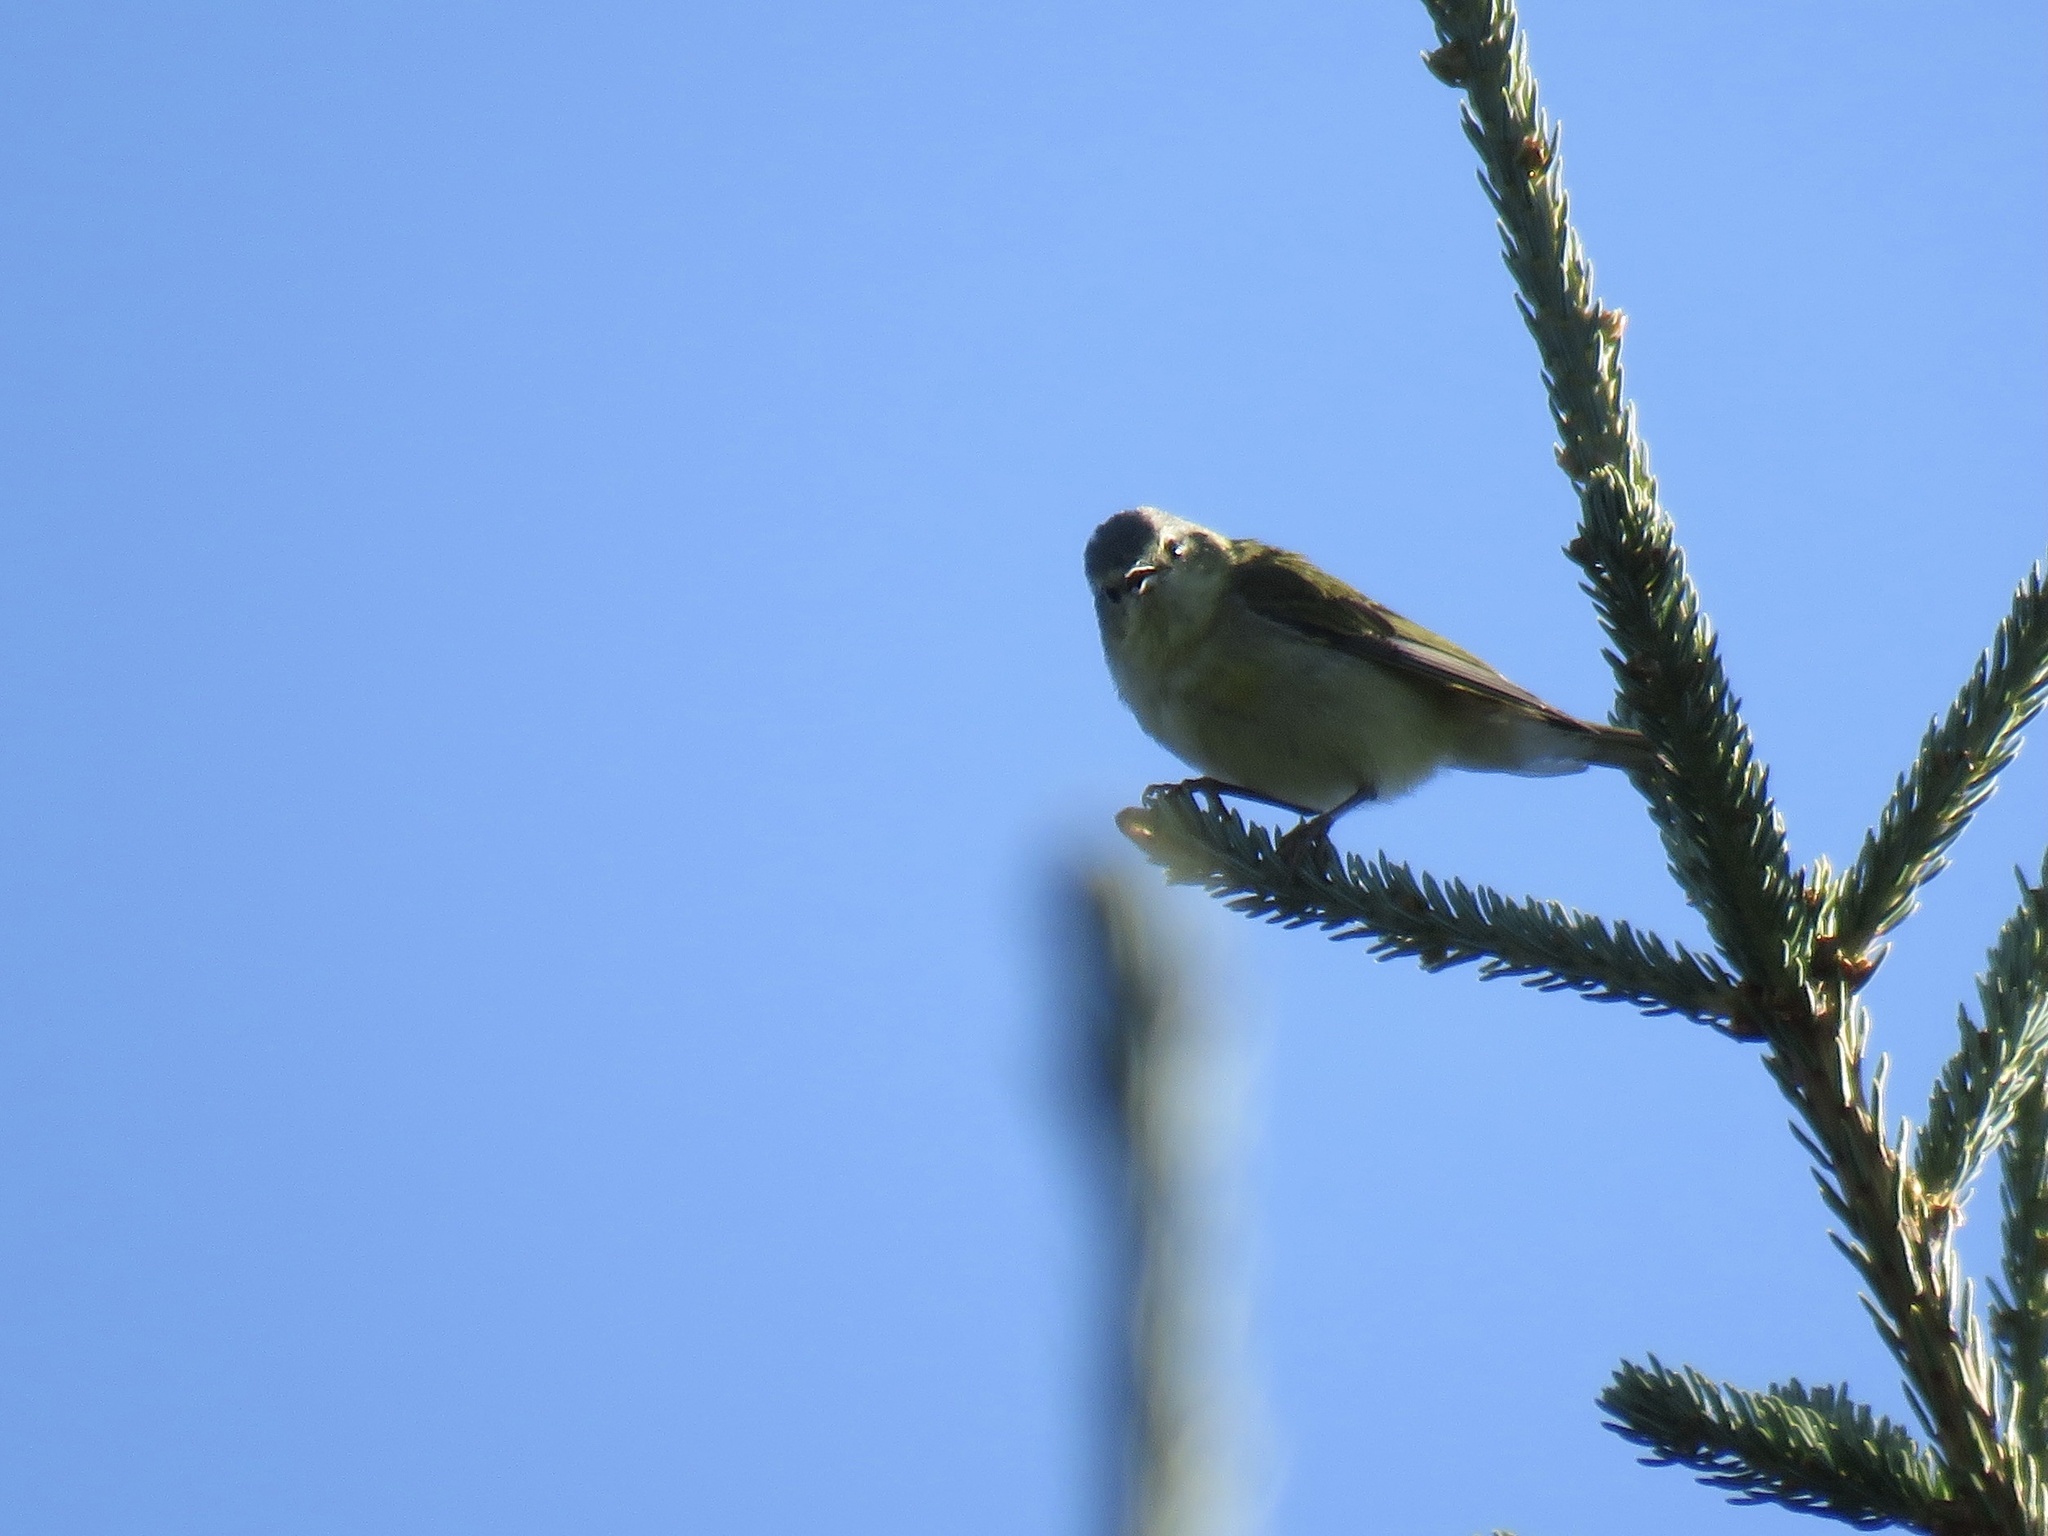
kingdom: Animalia
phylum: Chordata
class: Aves
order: Passeriformes
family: Parulidae
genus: Leiothlypis
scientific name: Leiothlypis peregrina
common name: Tennessee warbler
